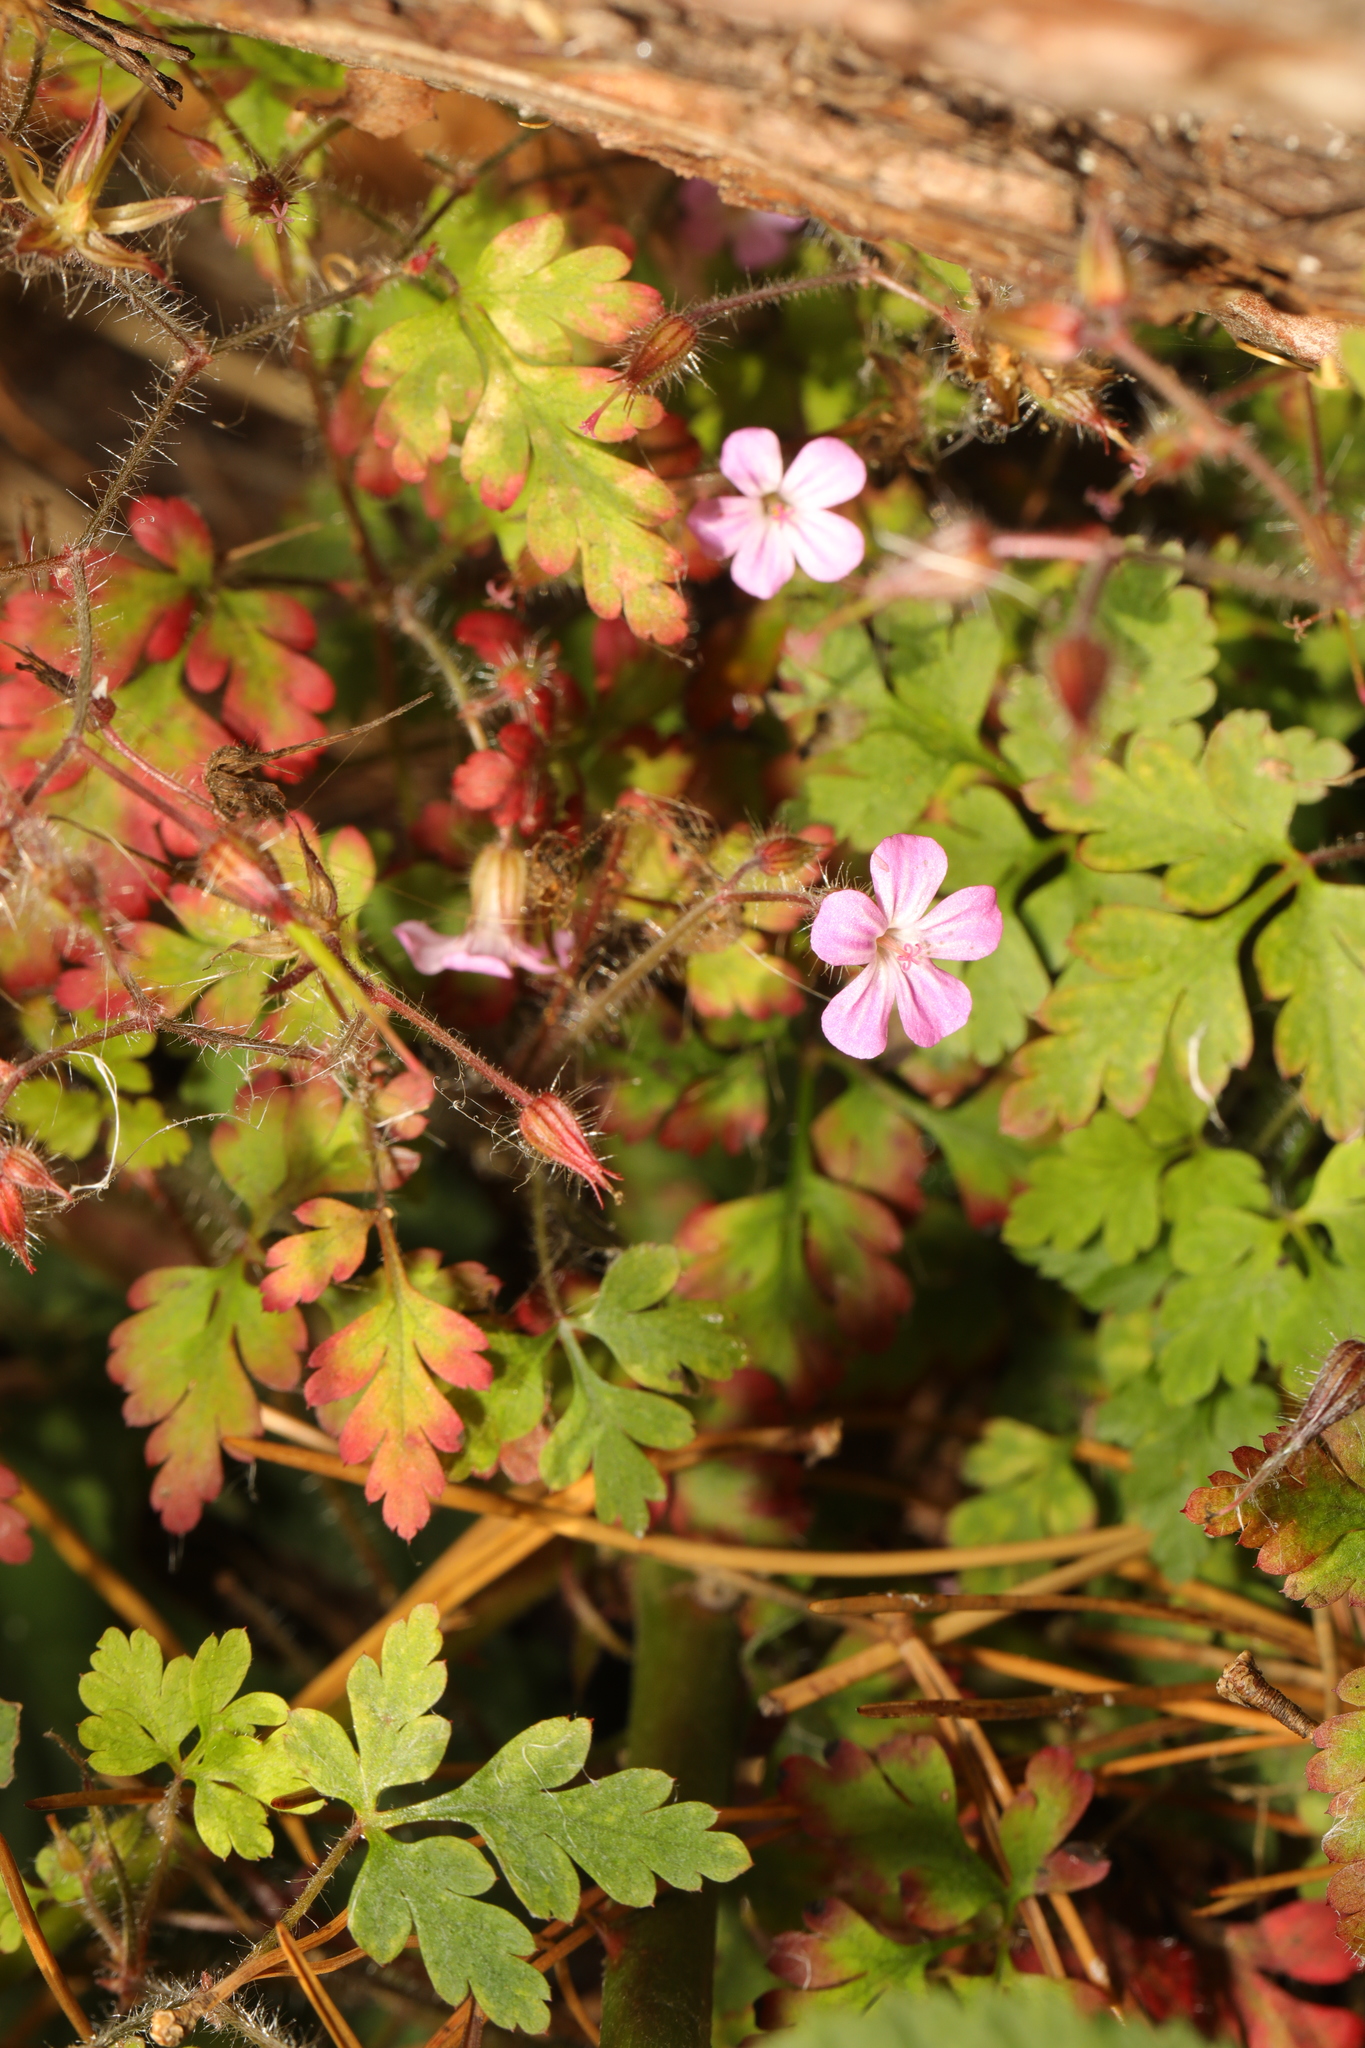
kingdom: Plantae
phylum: Tracheophyta
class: Magnoliopsida
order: Geraniales
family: Geraniaceae
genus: Geranium
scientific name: Geranium robertianum
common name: Herb-robert
